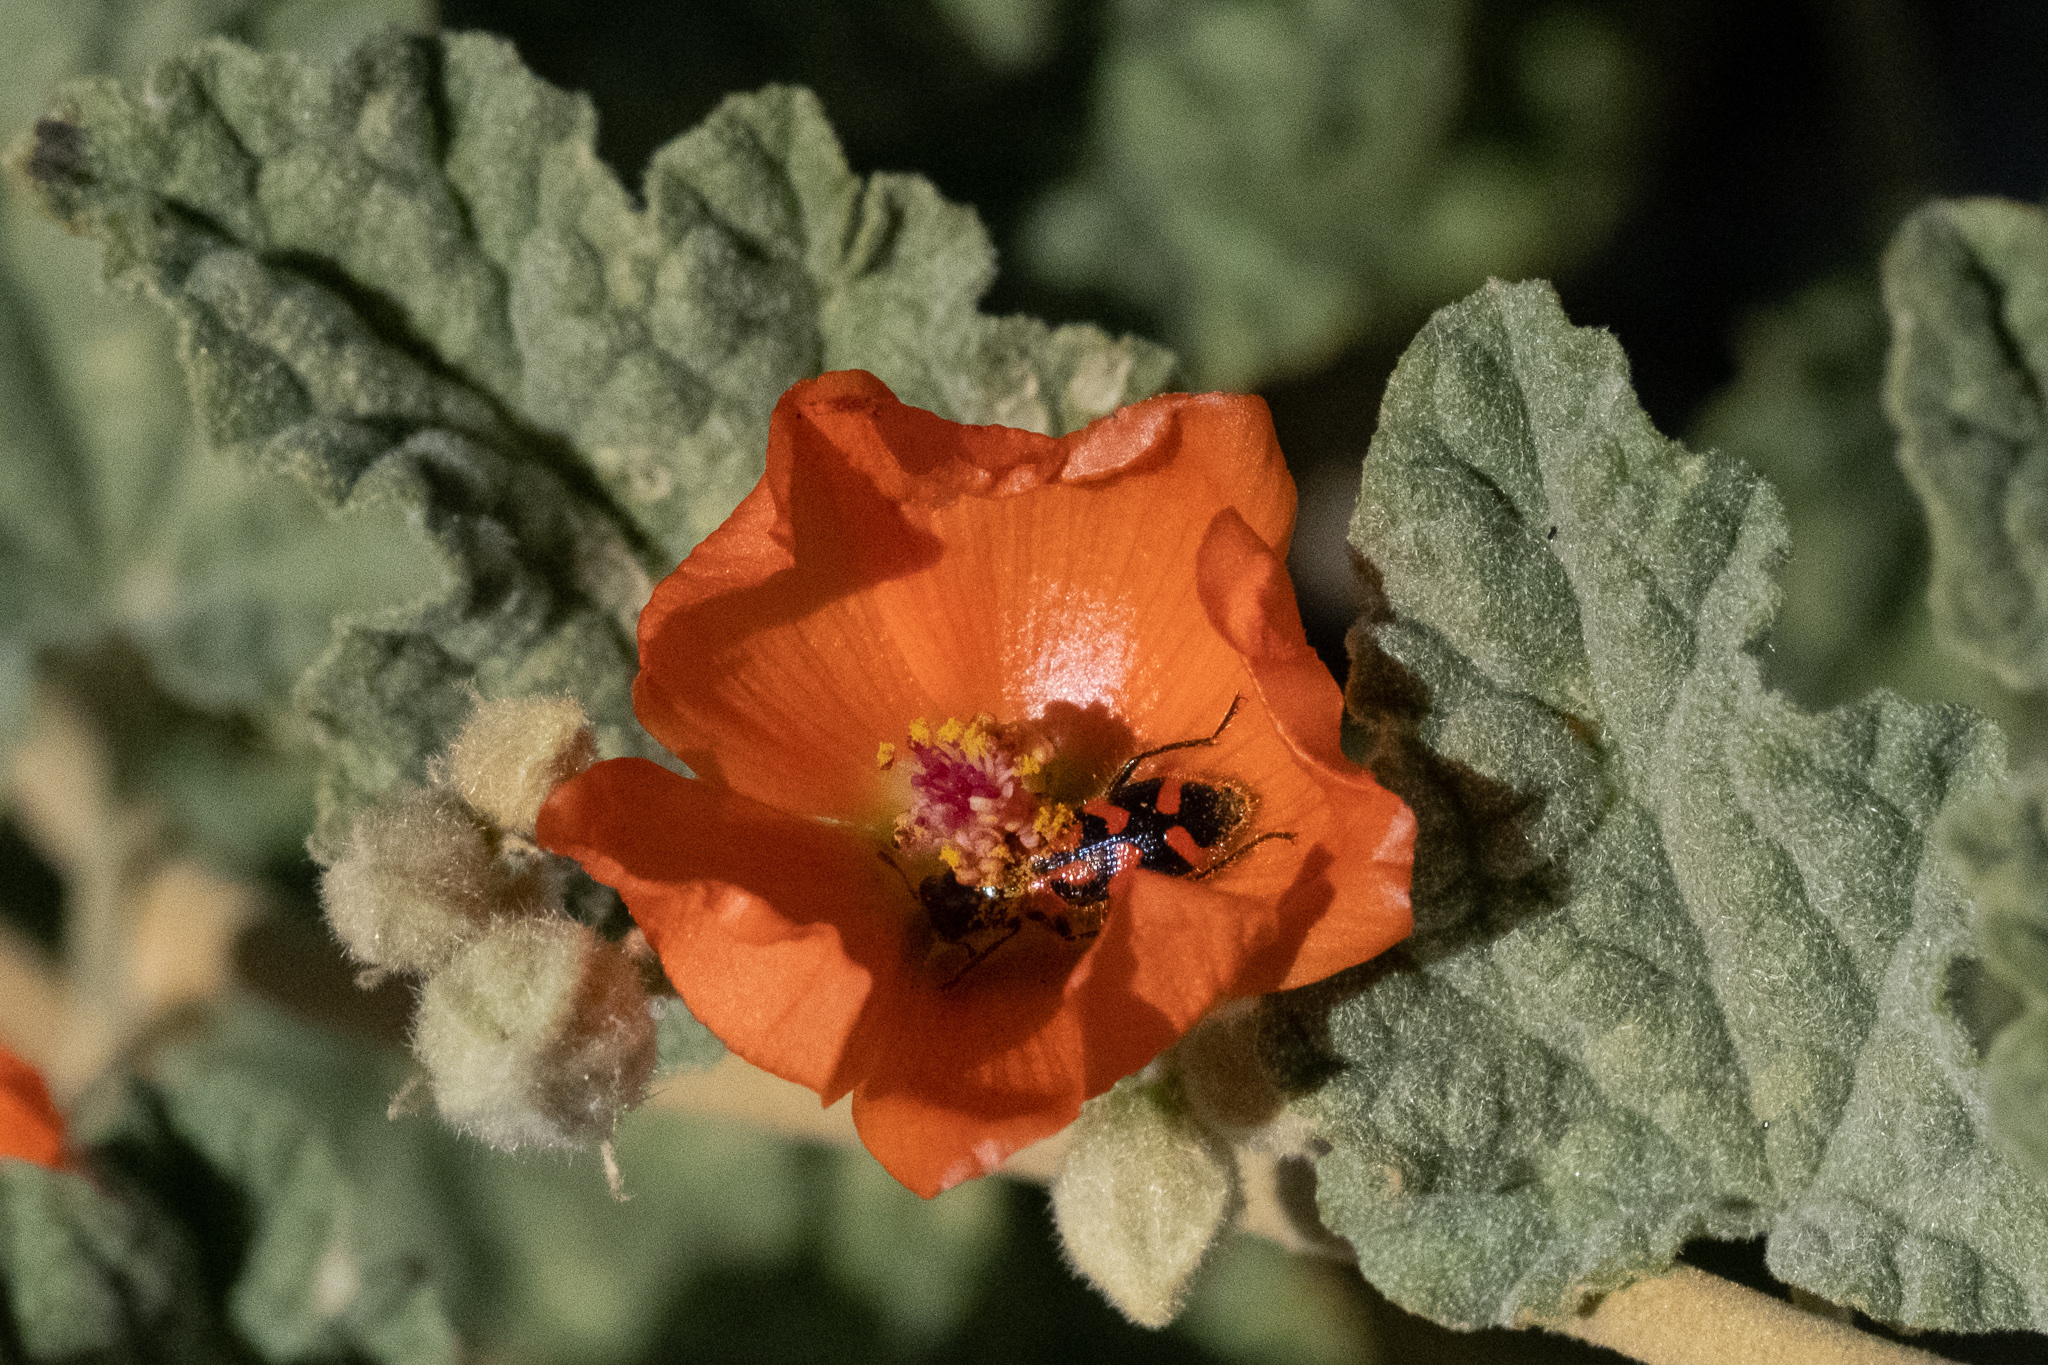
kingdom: Plantae
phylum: Tracheophyta
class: Magnoliopsida
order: Malvales
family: Malvaceae
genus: Sphaeralcea
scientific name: Sphaeralcea ambigua
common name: Apricot globe-mallow
